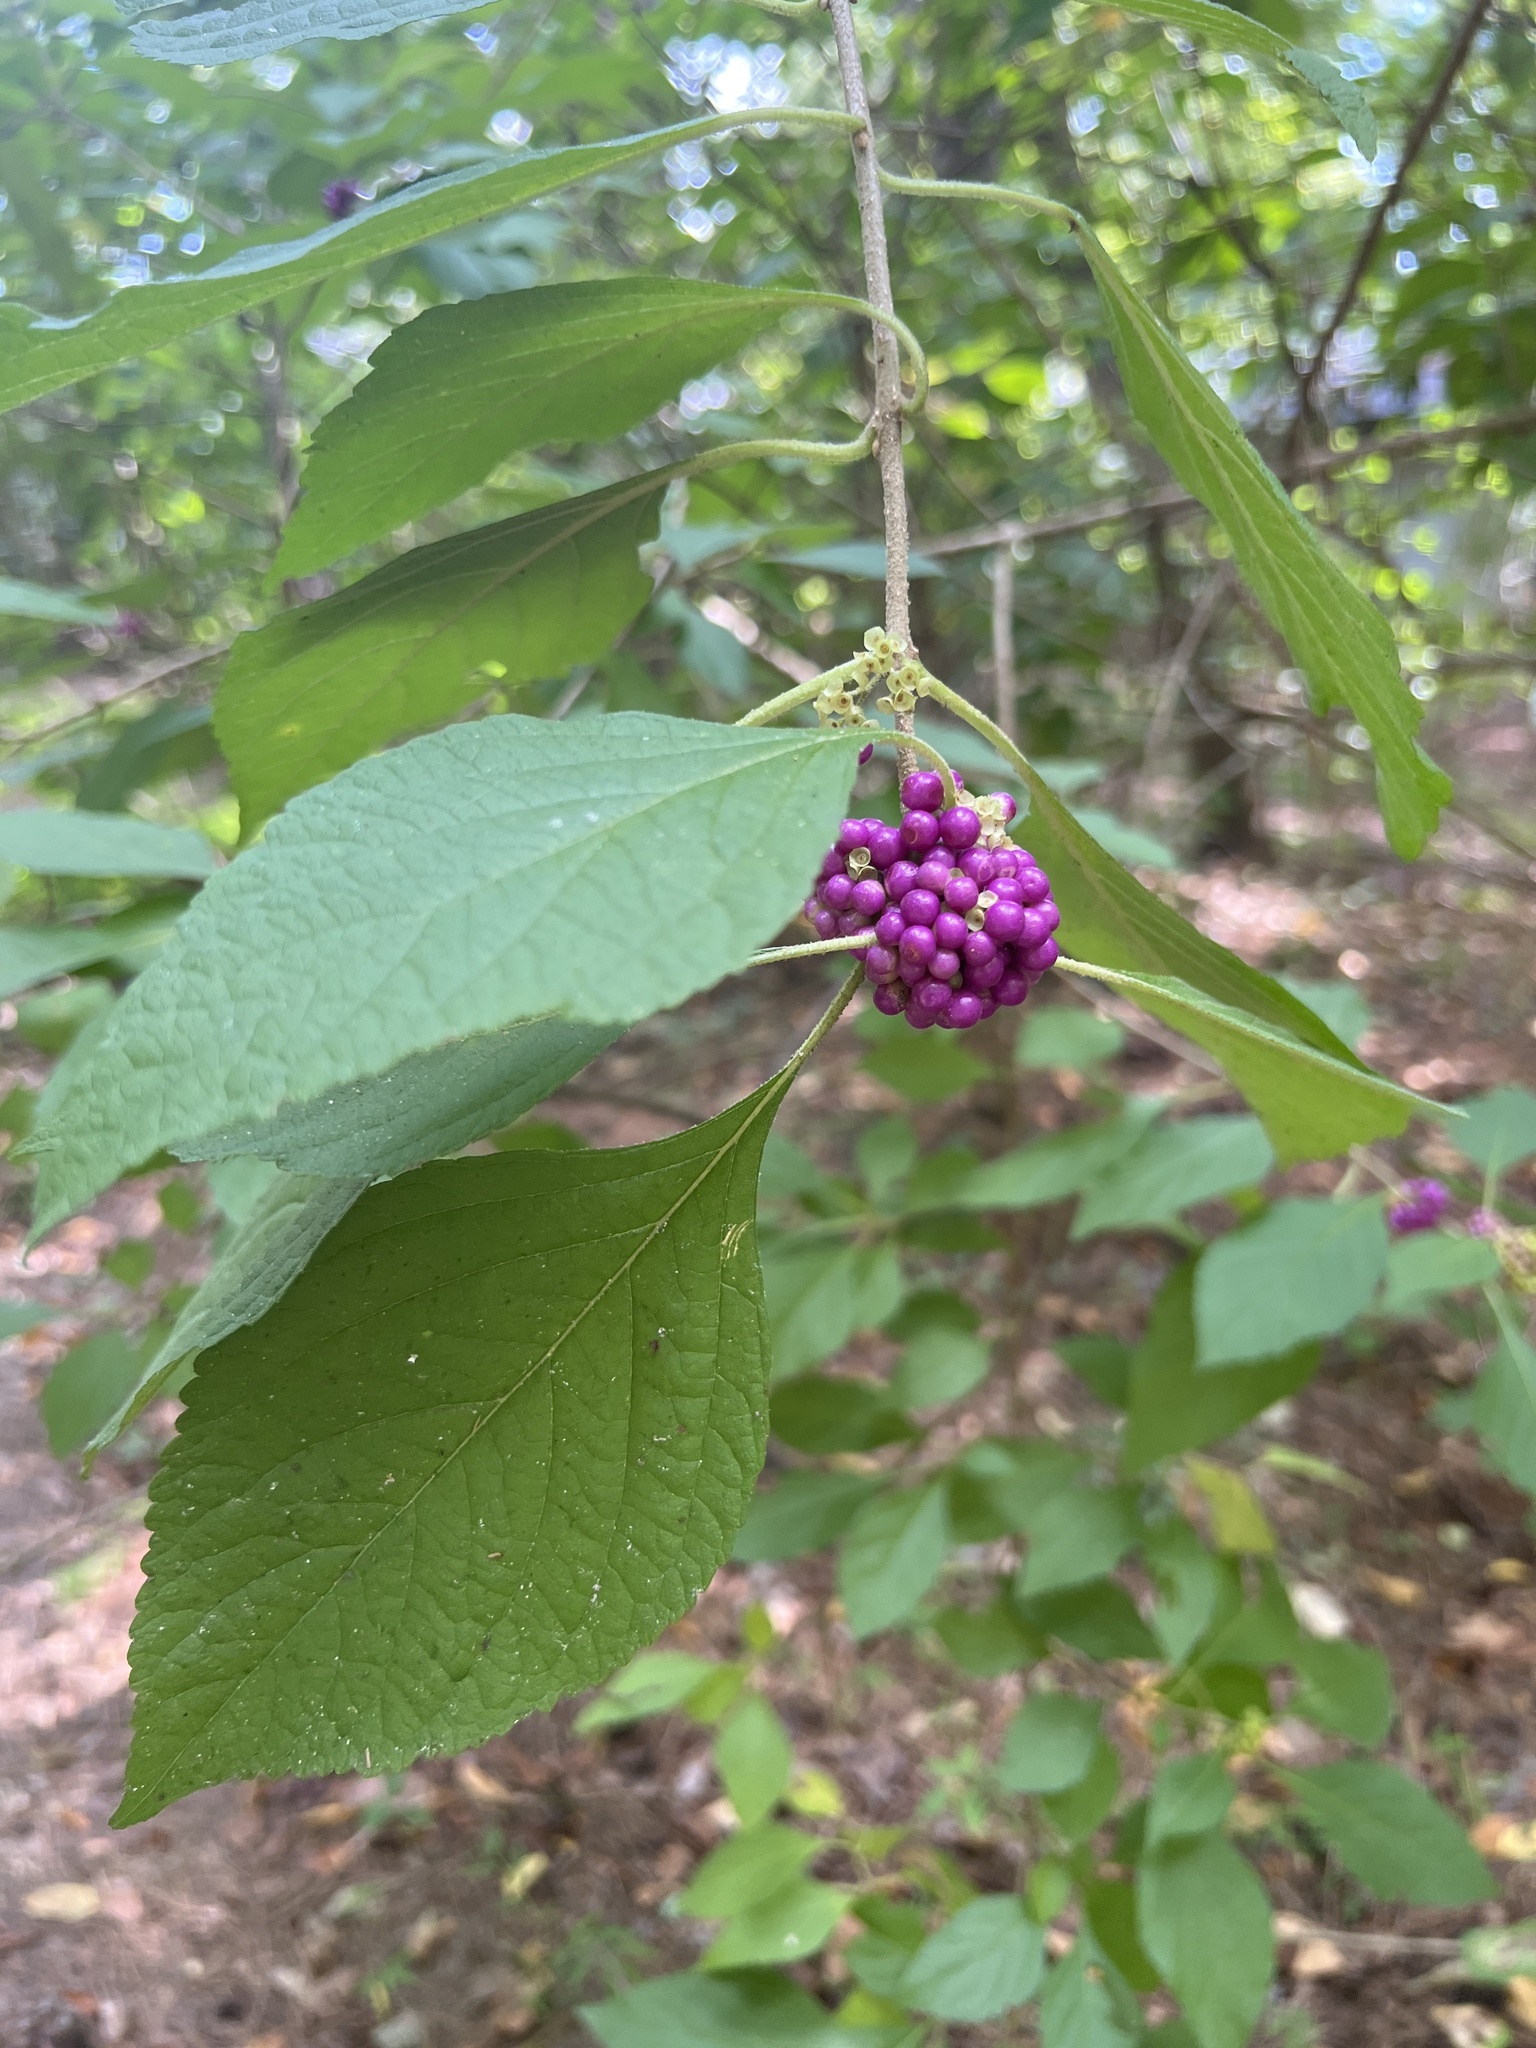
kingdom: Plantae
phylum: Tracheophyta
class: Magnoliopsida
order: Lamiales
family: Lamiaceae
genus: Callicarpa
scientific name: Callicarpa americana
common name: American beautyberry
